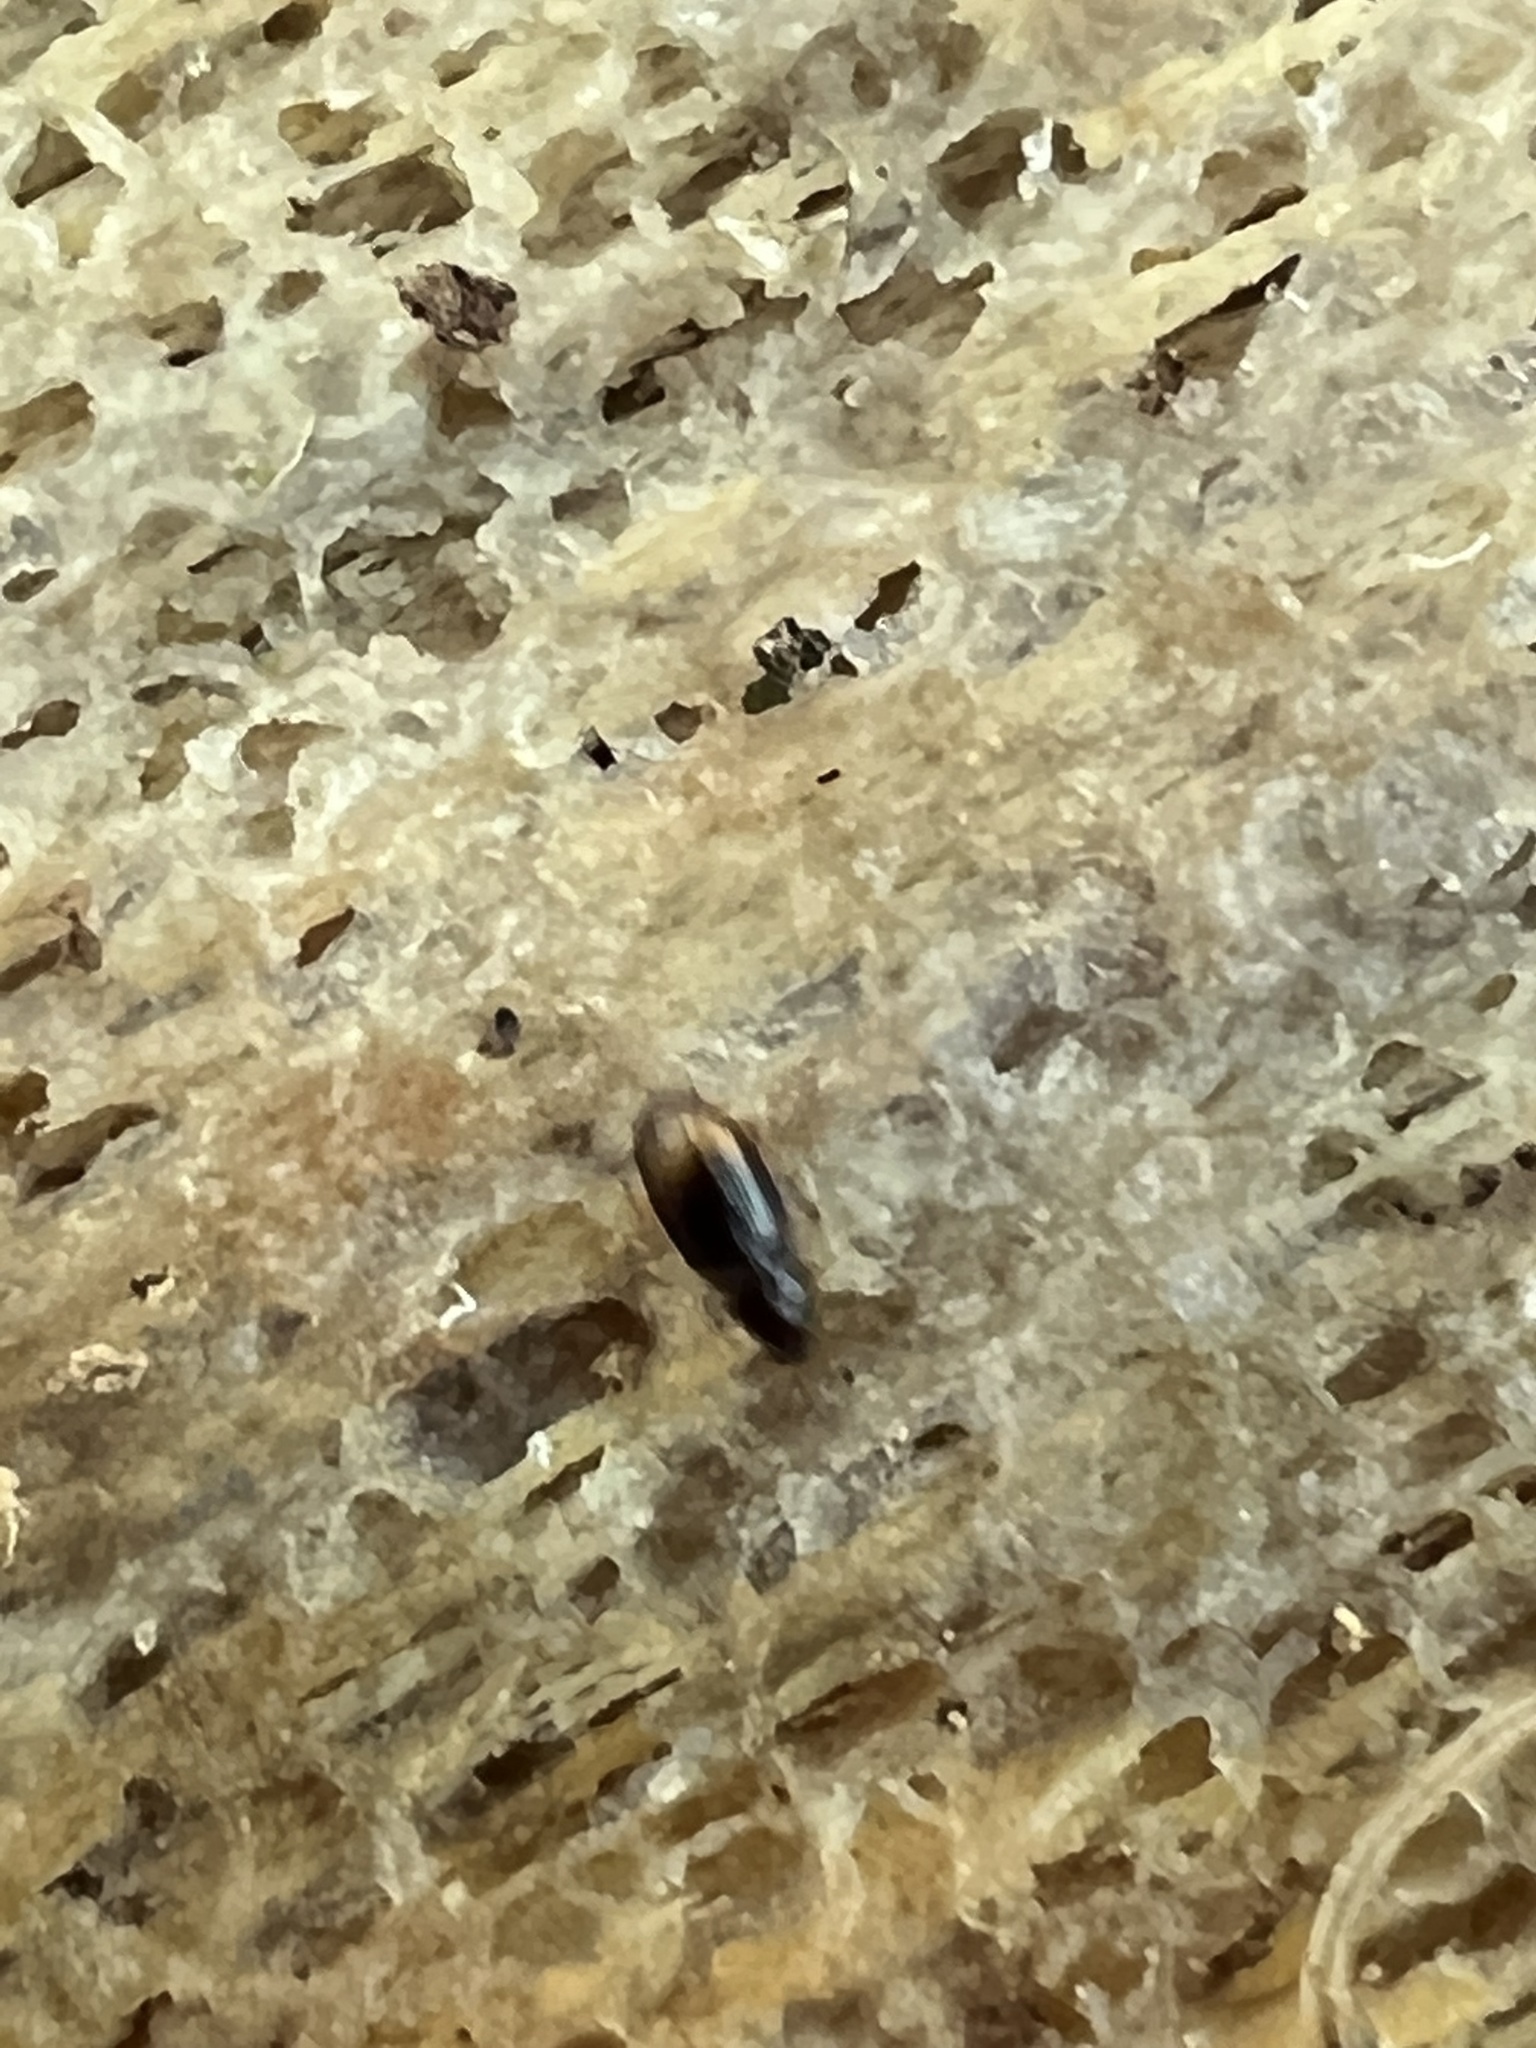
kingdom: Animalia
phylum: Arthropoda
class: Insecta
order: Coleoptera
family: Carabidae
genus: Mioptachys
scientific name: Mioptachys flavicauda
